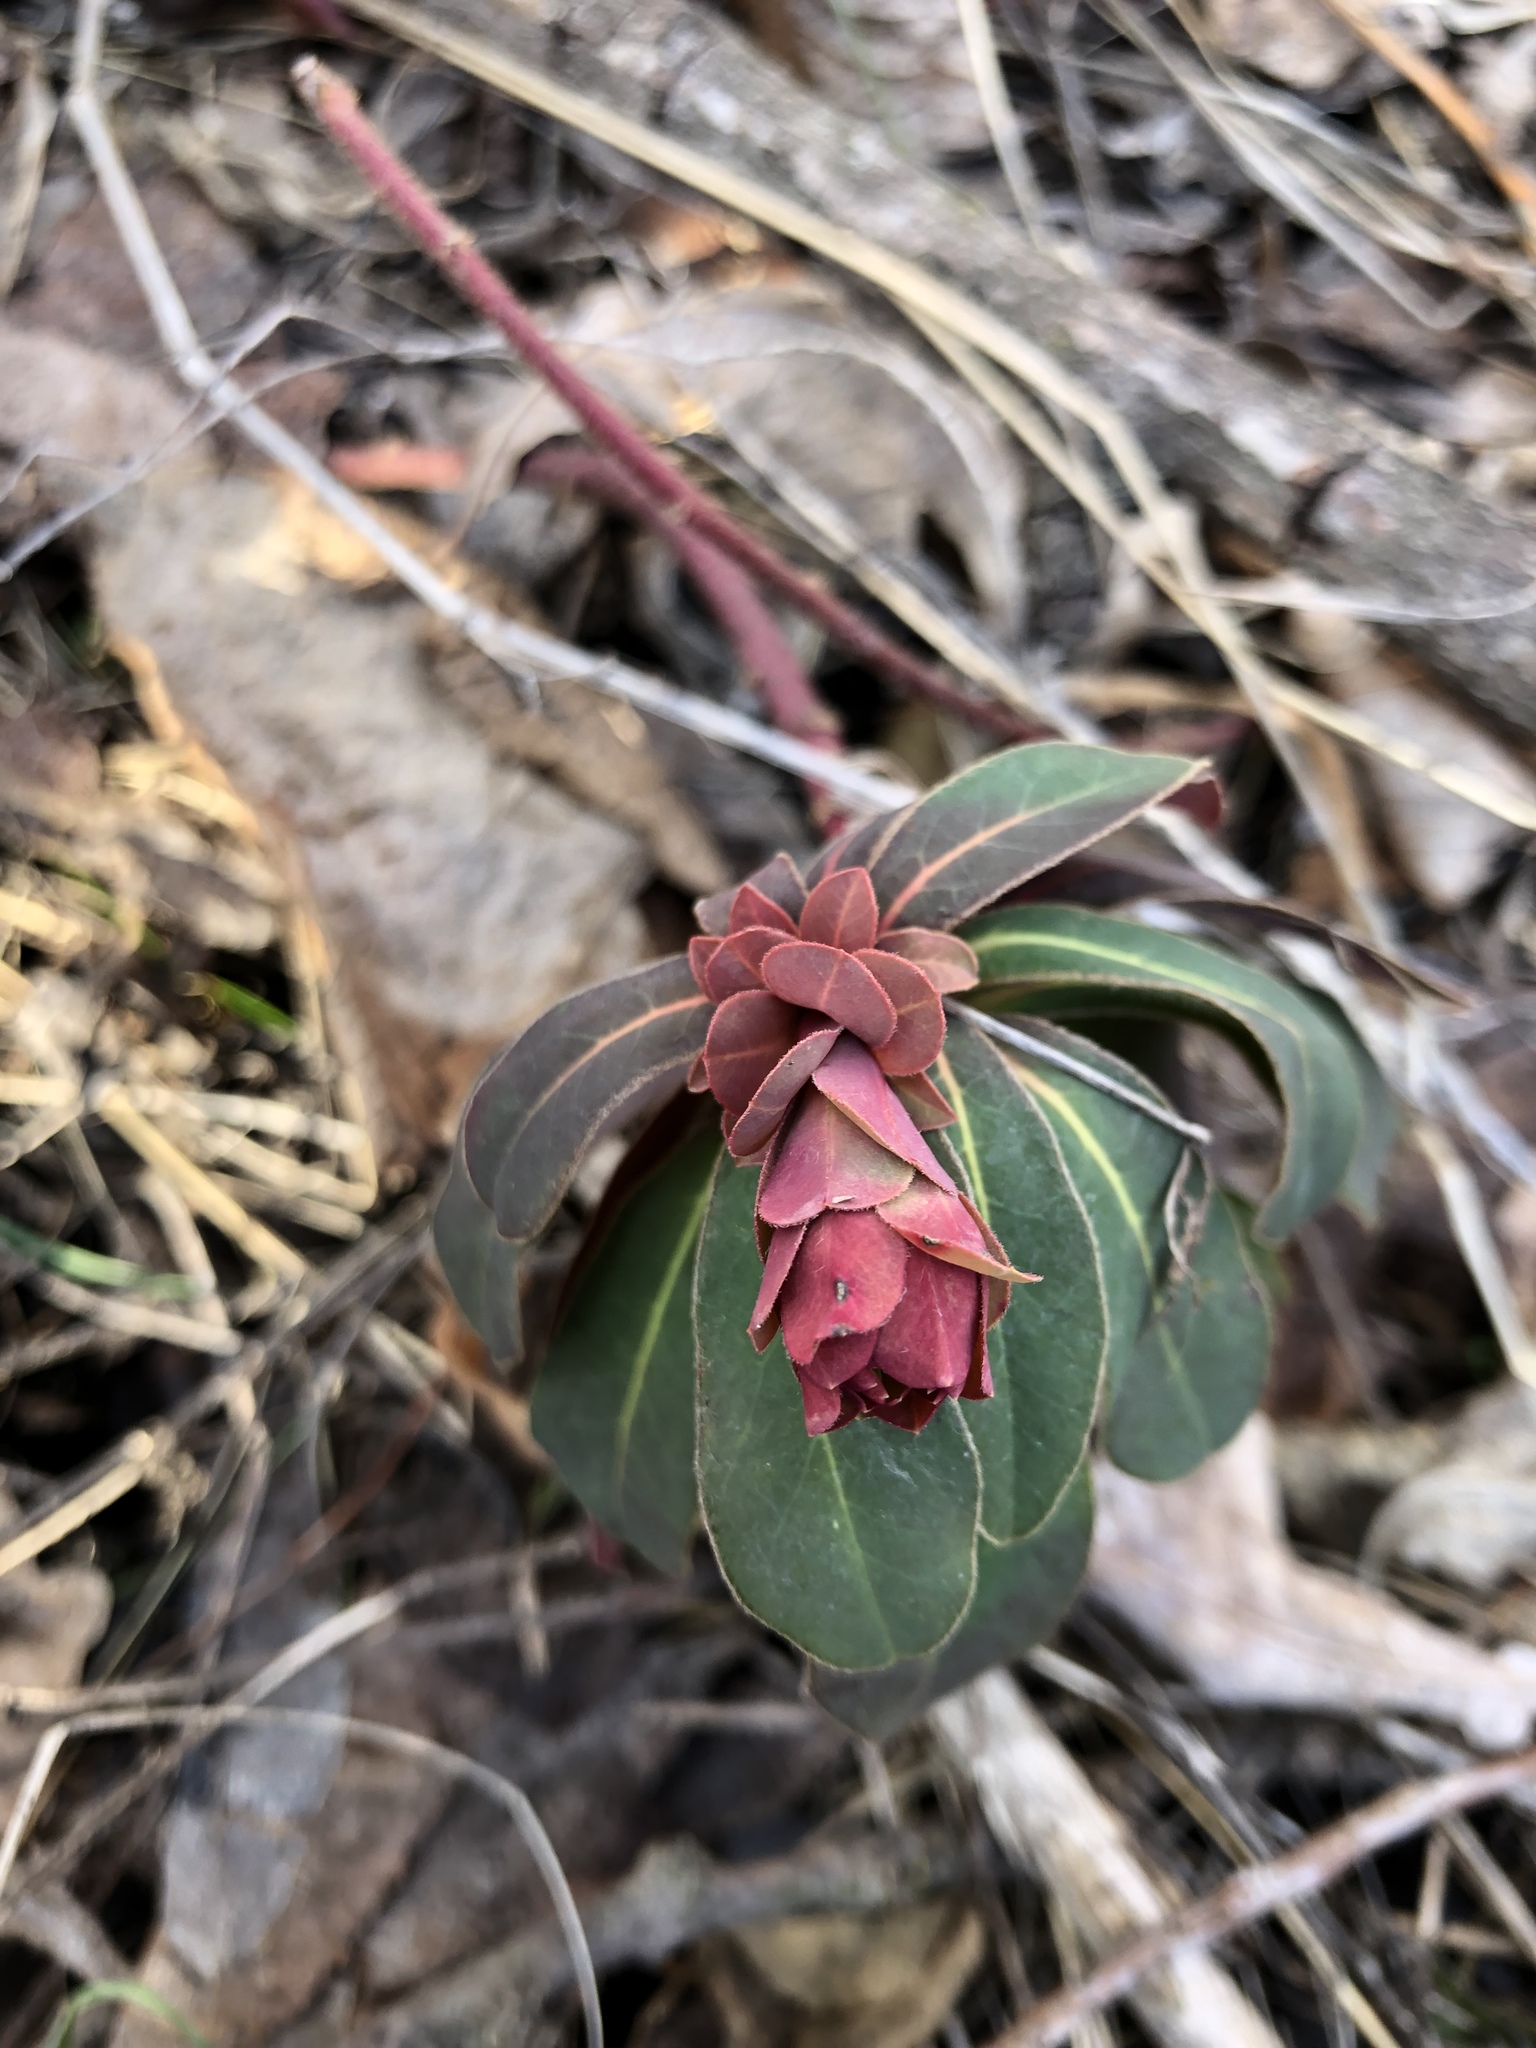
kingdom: Plantae
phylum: Tracheophyta
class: Magnoliopsida
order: Malpighiales
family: Euphorbiaceae
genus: Euphorbia
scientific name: Euphorbia amygdaloides
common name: Wood spurge
